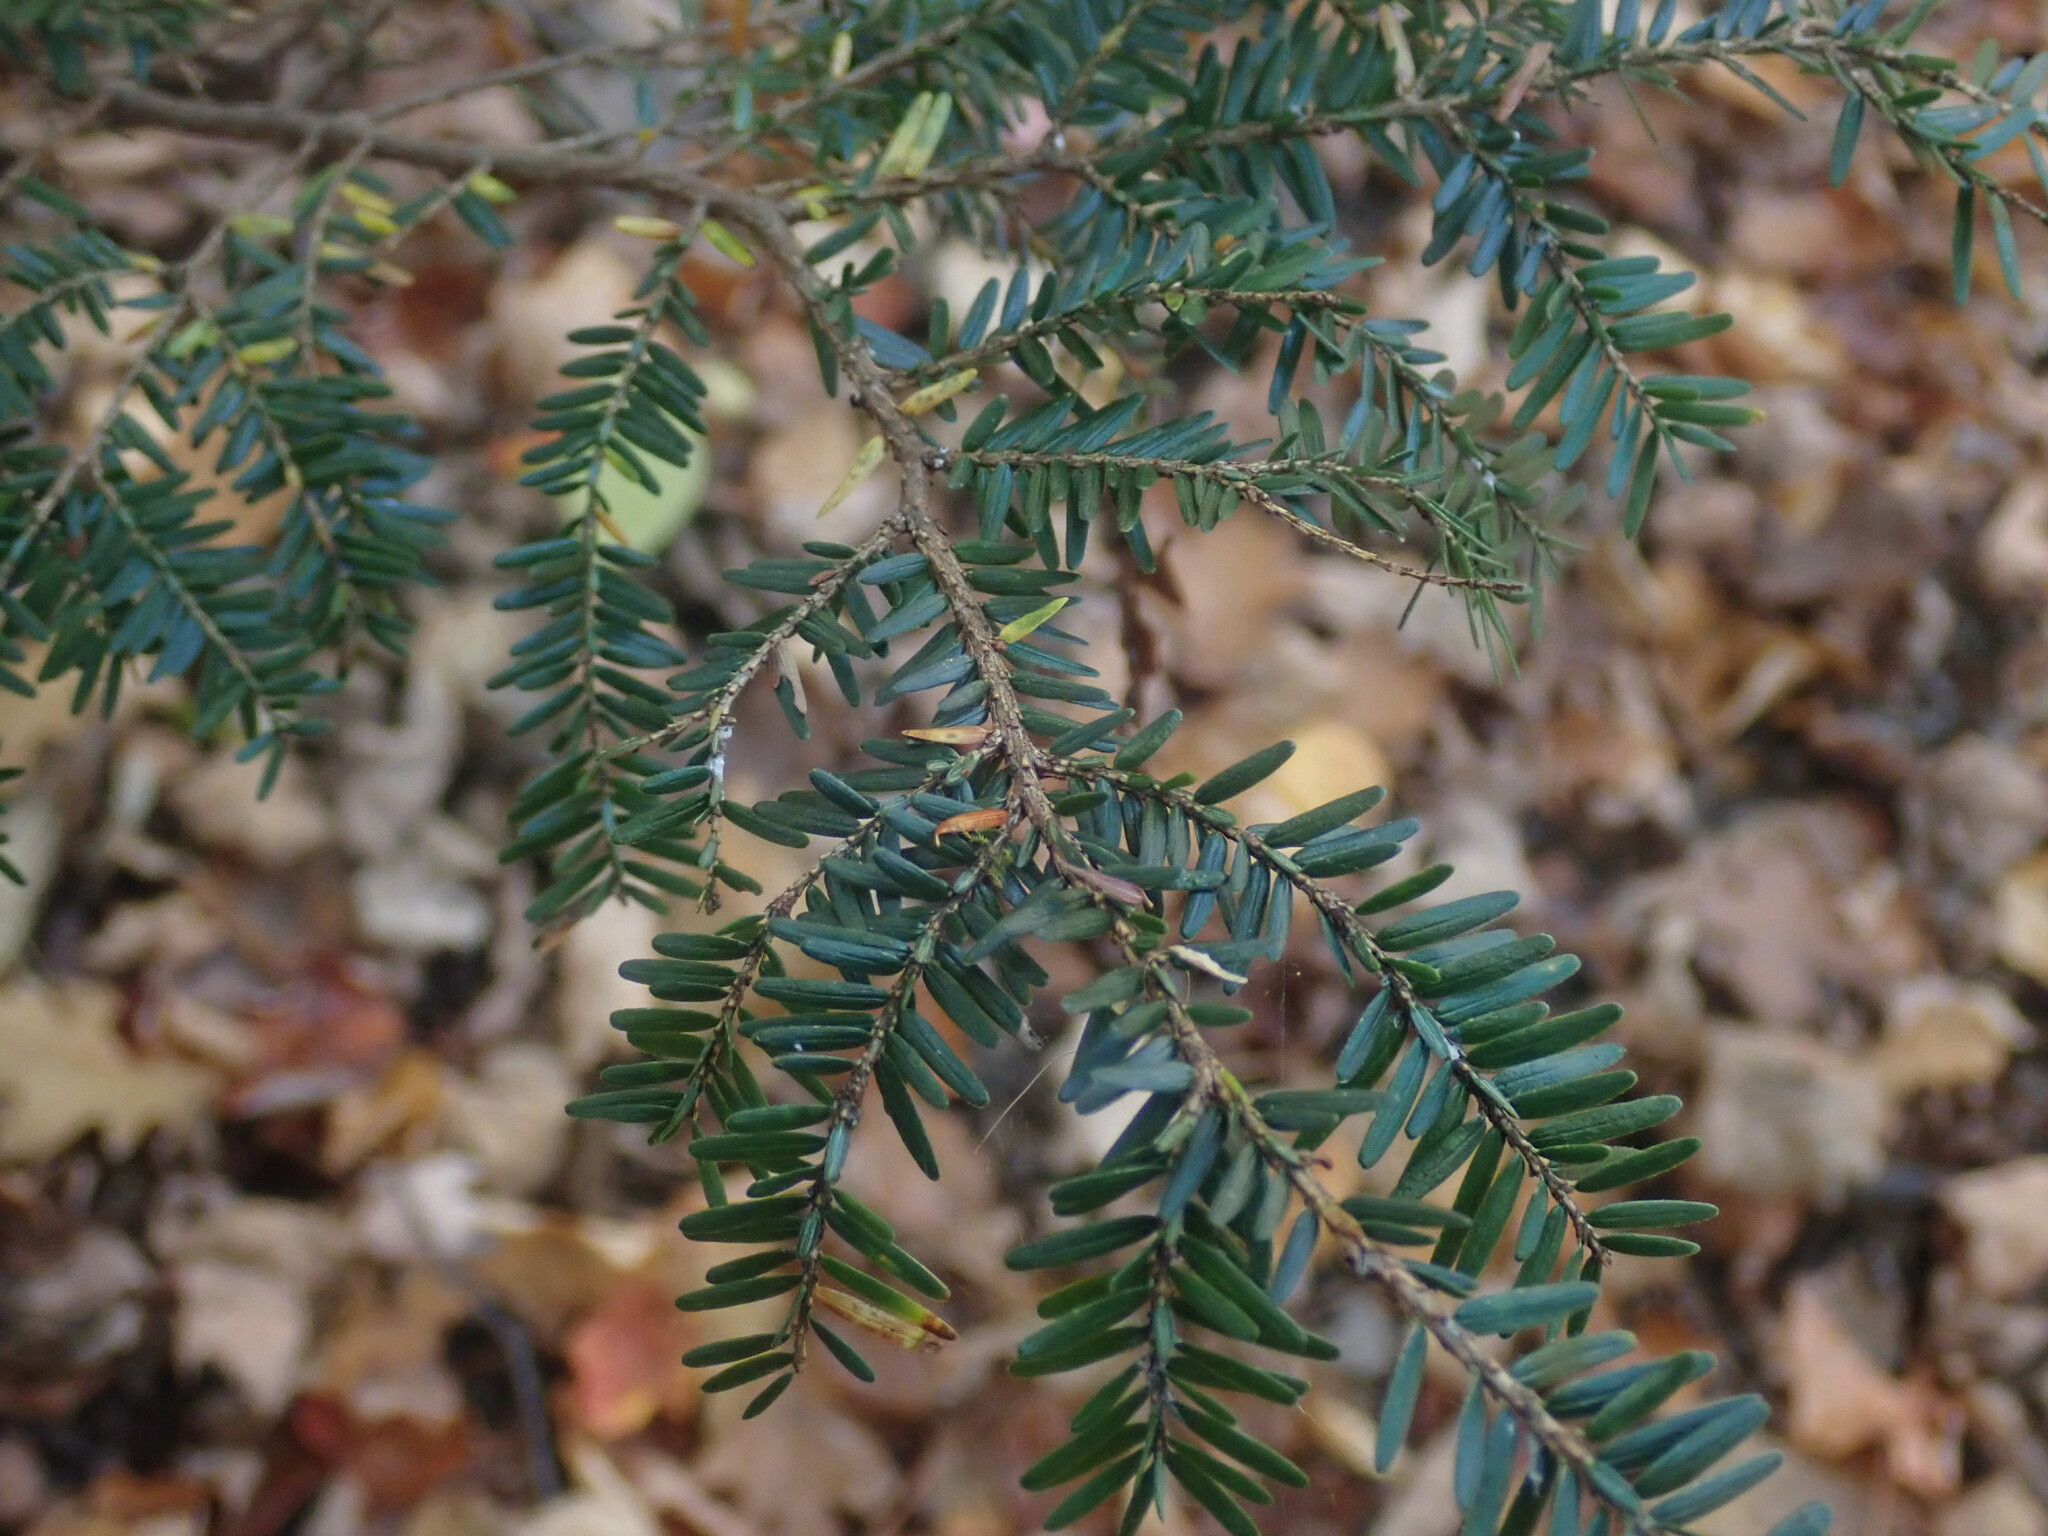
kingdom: Plantae
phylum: Tracheophyta
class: Pinopsida
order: Pinales
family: Pinaceae
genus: Tsuga
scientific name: Tsuga canadensis
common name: Eastern hemlock
